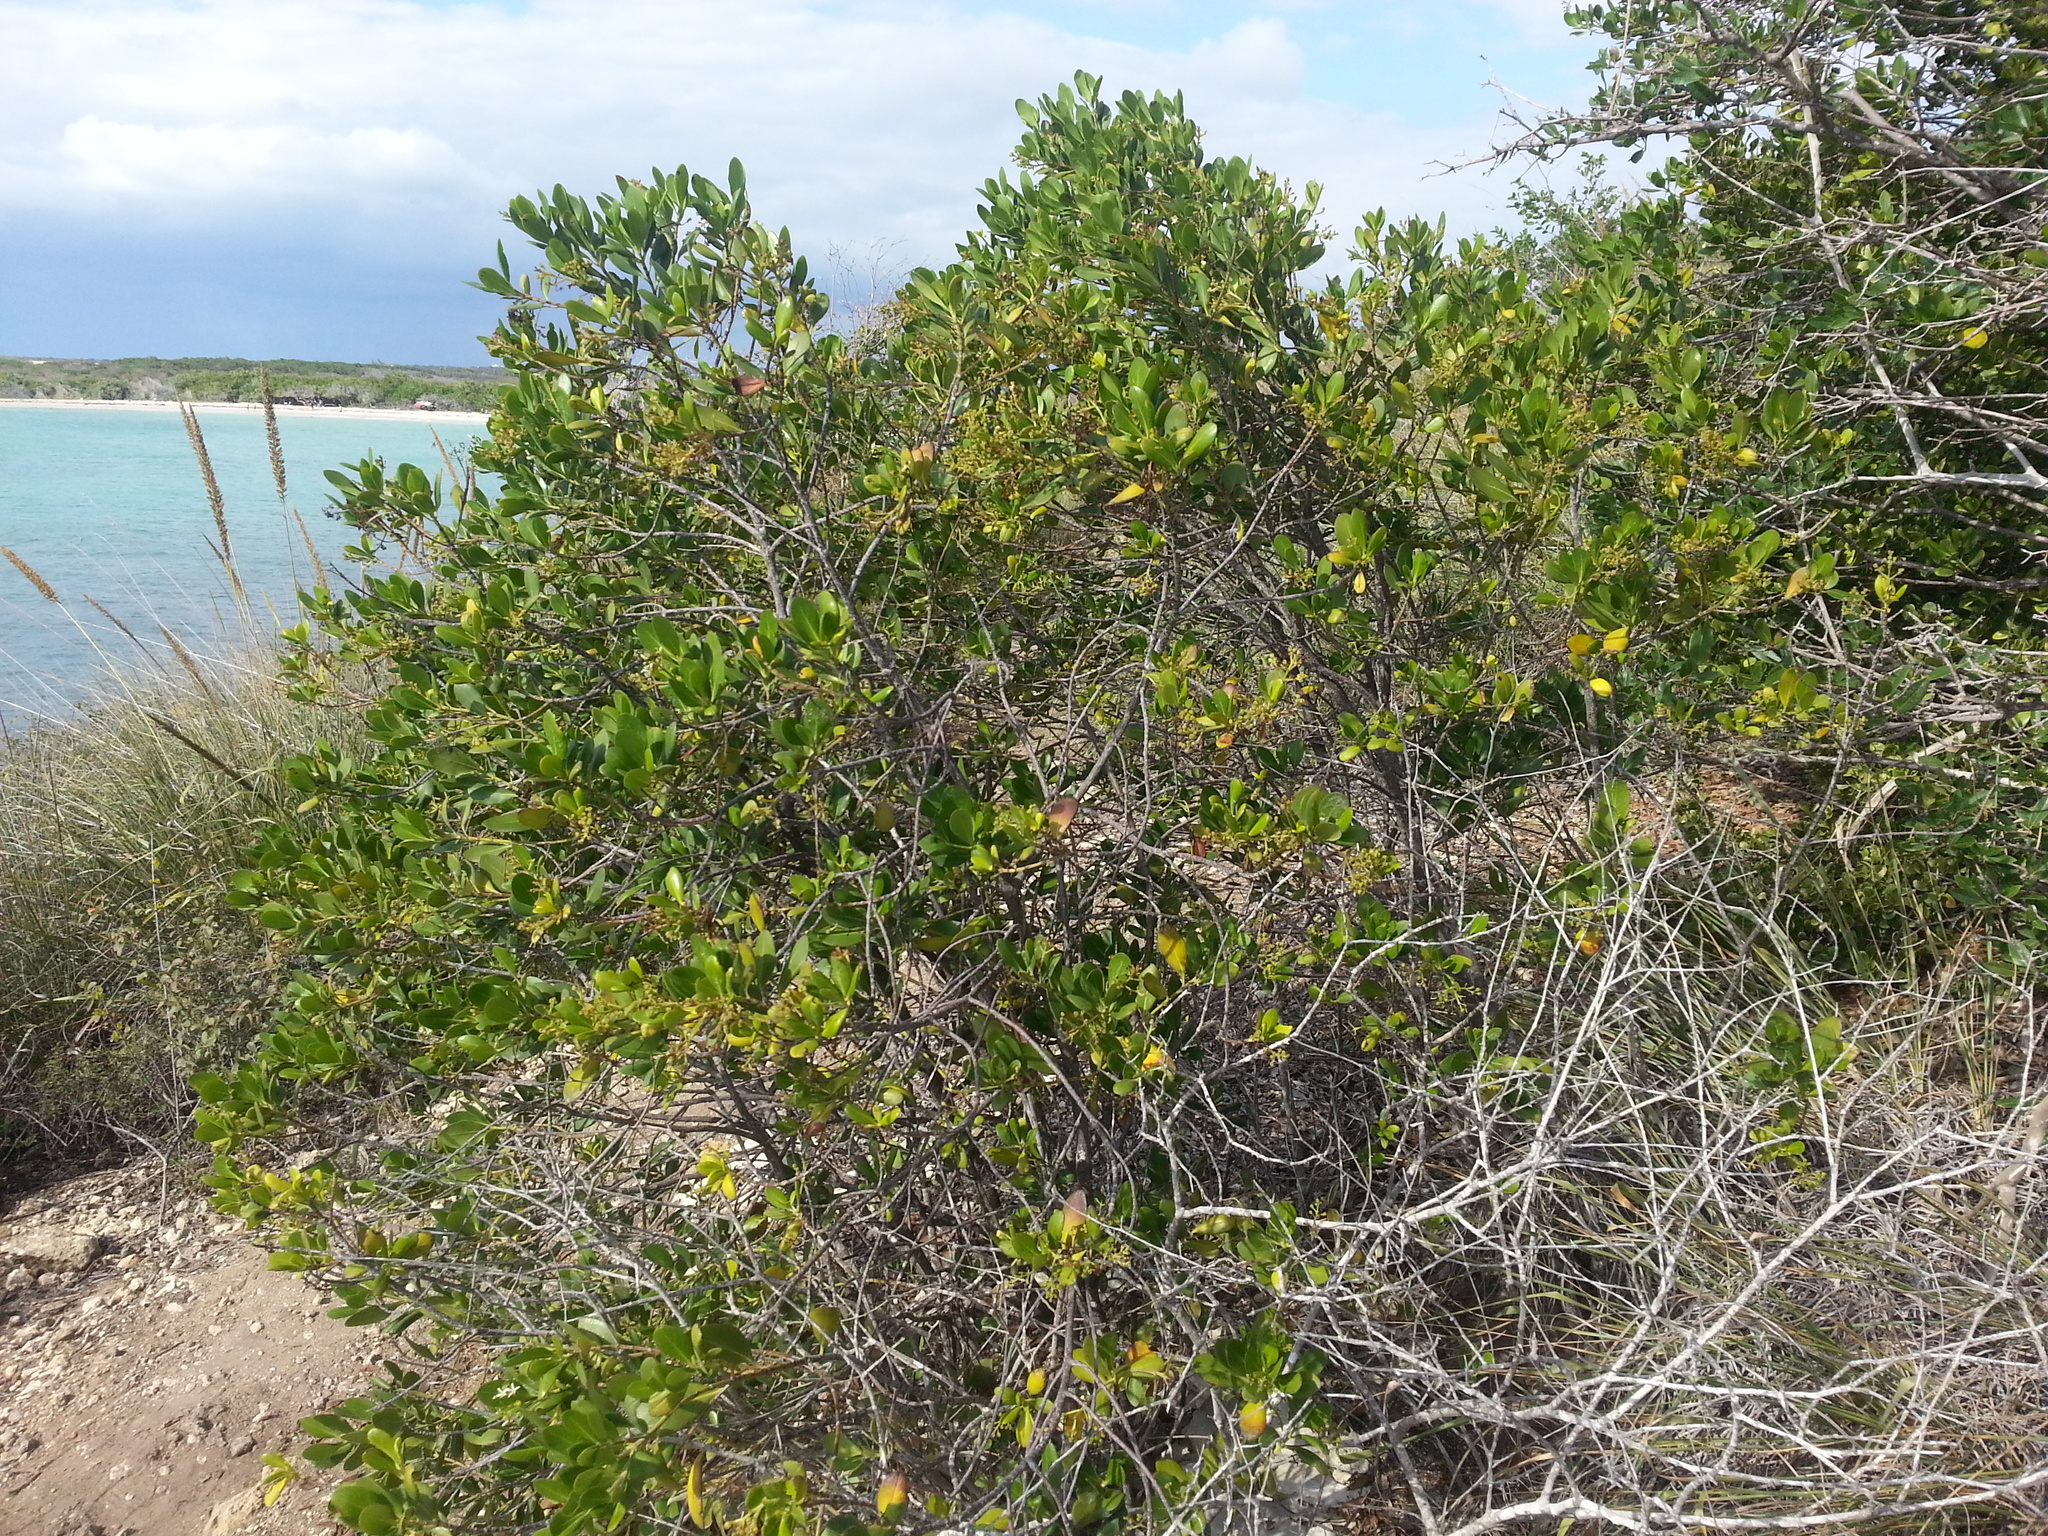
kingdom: Plantae
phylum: Tracheophyta
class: Magnoliopsida
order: Gentianales
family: Rubiaceae
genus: Erithalis
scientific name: Erithalis fruticosa
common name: Candlewood
